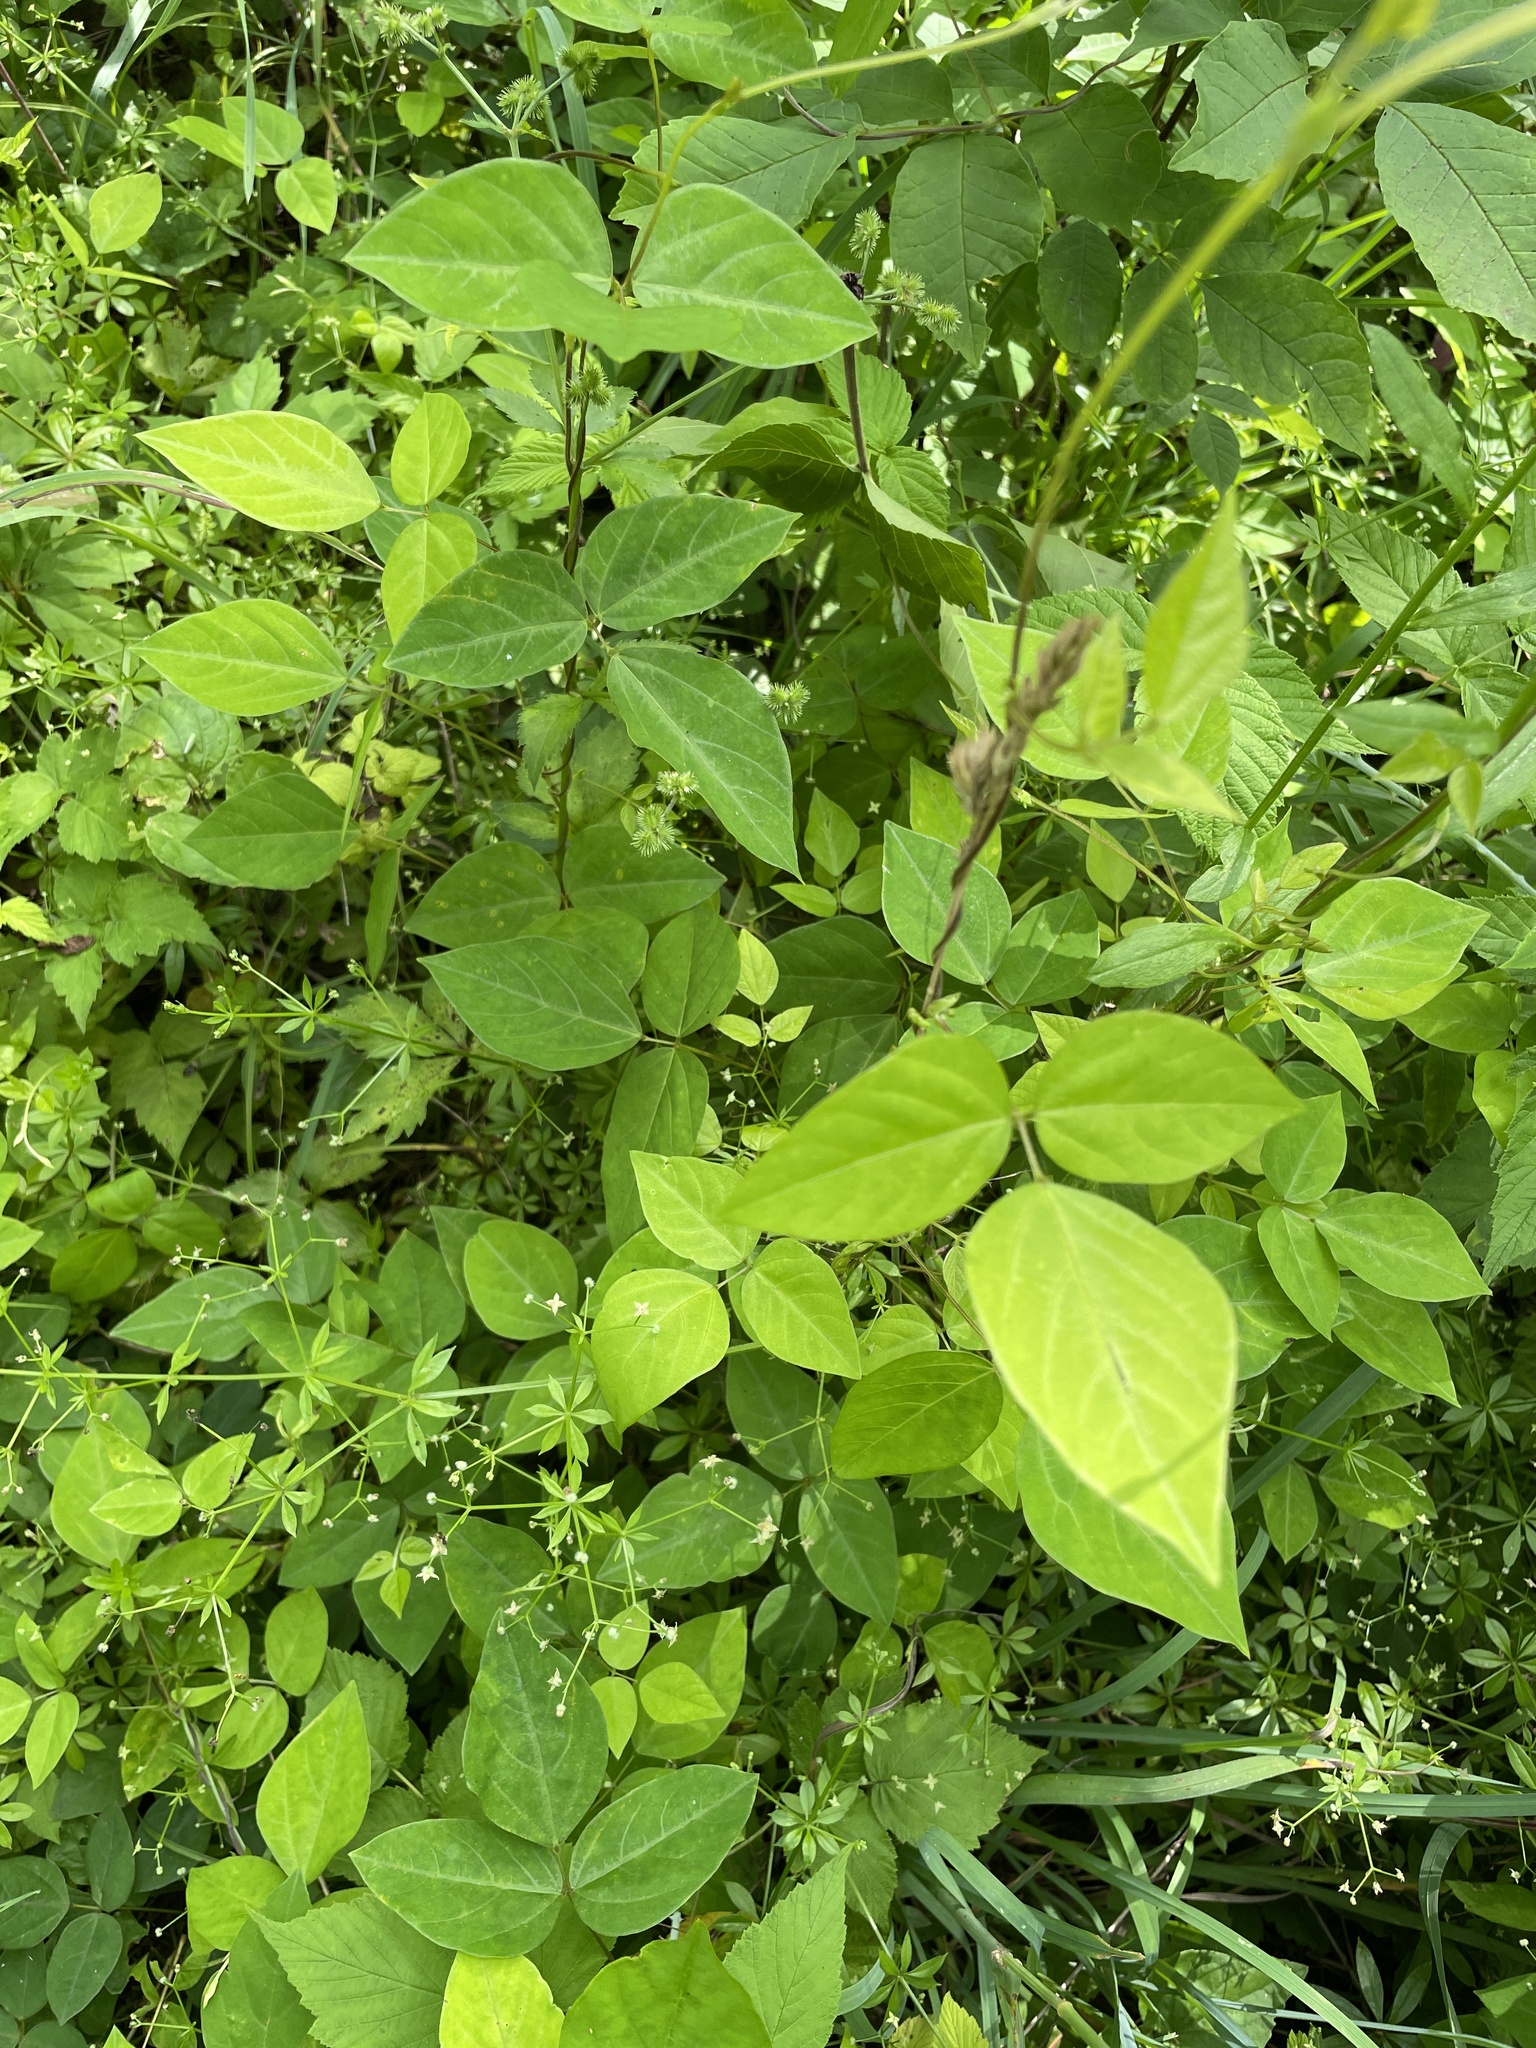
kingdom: Plantae
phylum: Tracheophyta
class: Magnoliopsida
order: Fabales
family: Fabaceae
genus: Amphicarpaea
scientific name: Amphicarpaea bracteata
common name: American hog peanut
